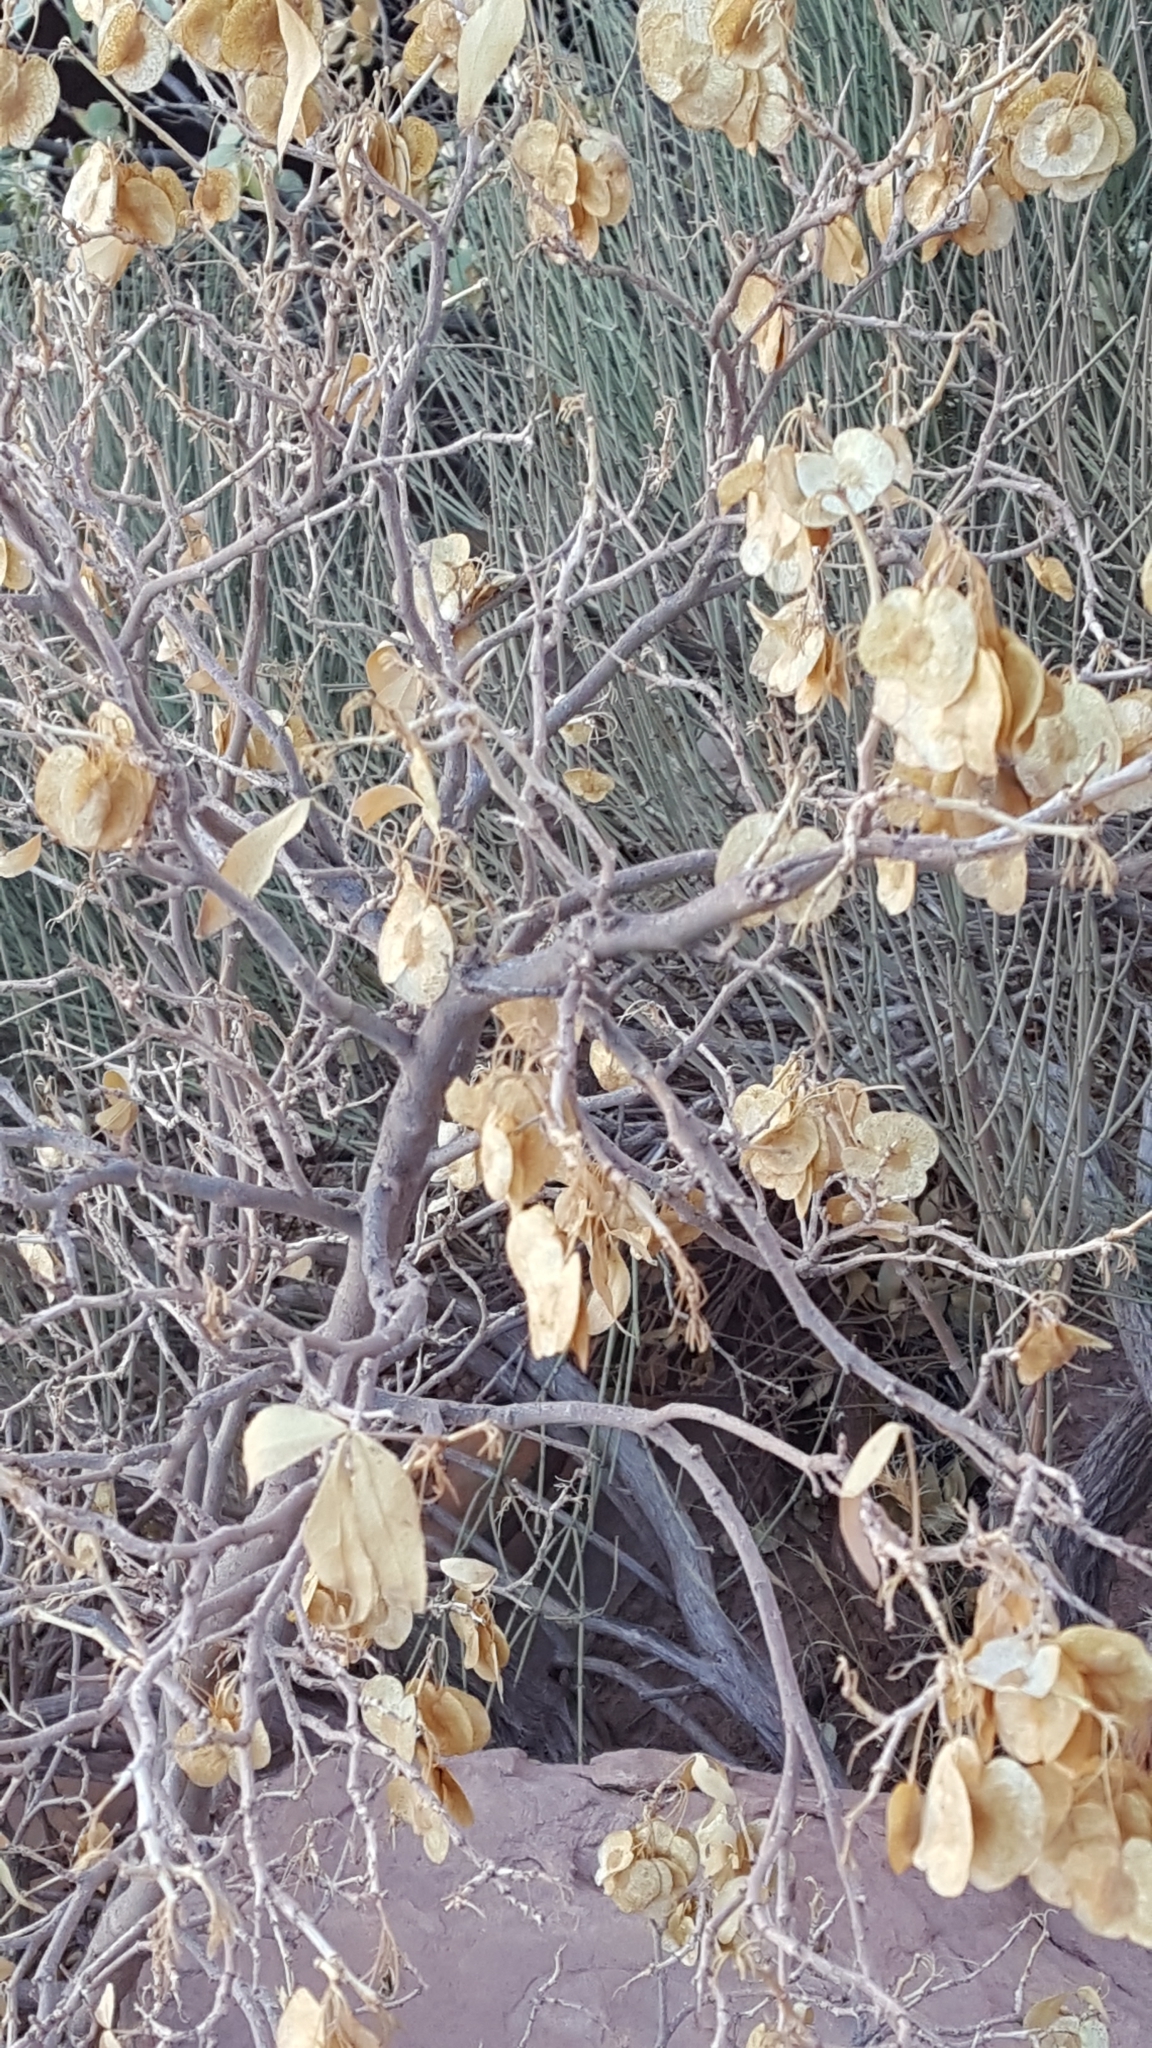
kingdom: Plantae
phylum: Tracheophyta
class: Magnoliopsida
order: Sapindales
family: Rutaceae
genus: Ptelea
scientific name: Ptelea trifoliata
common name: Common hop-tree
